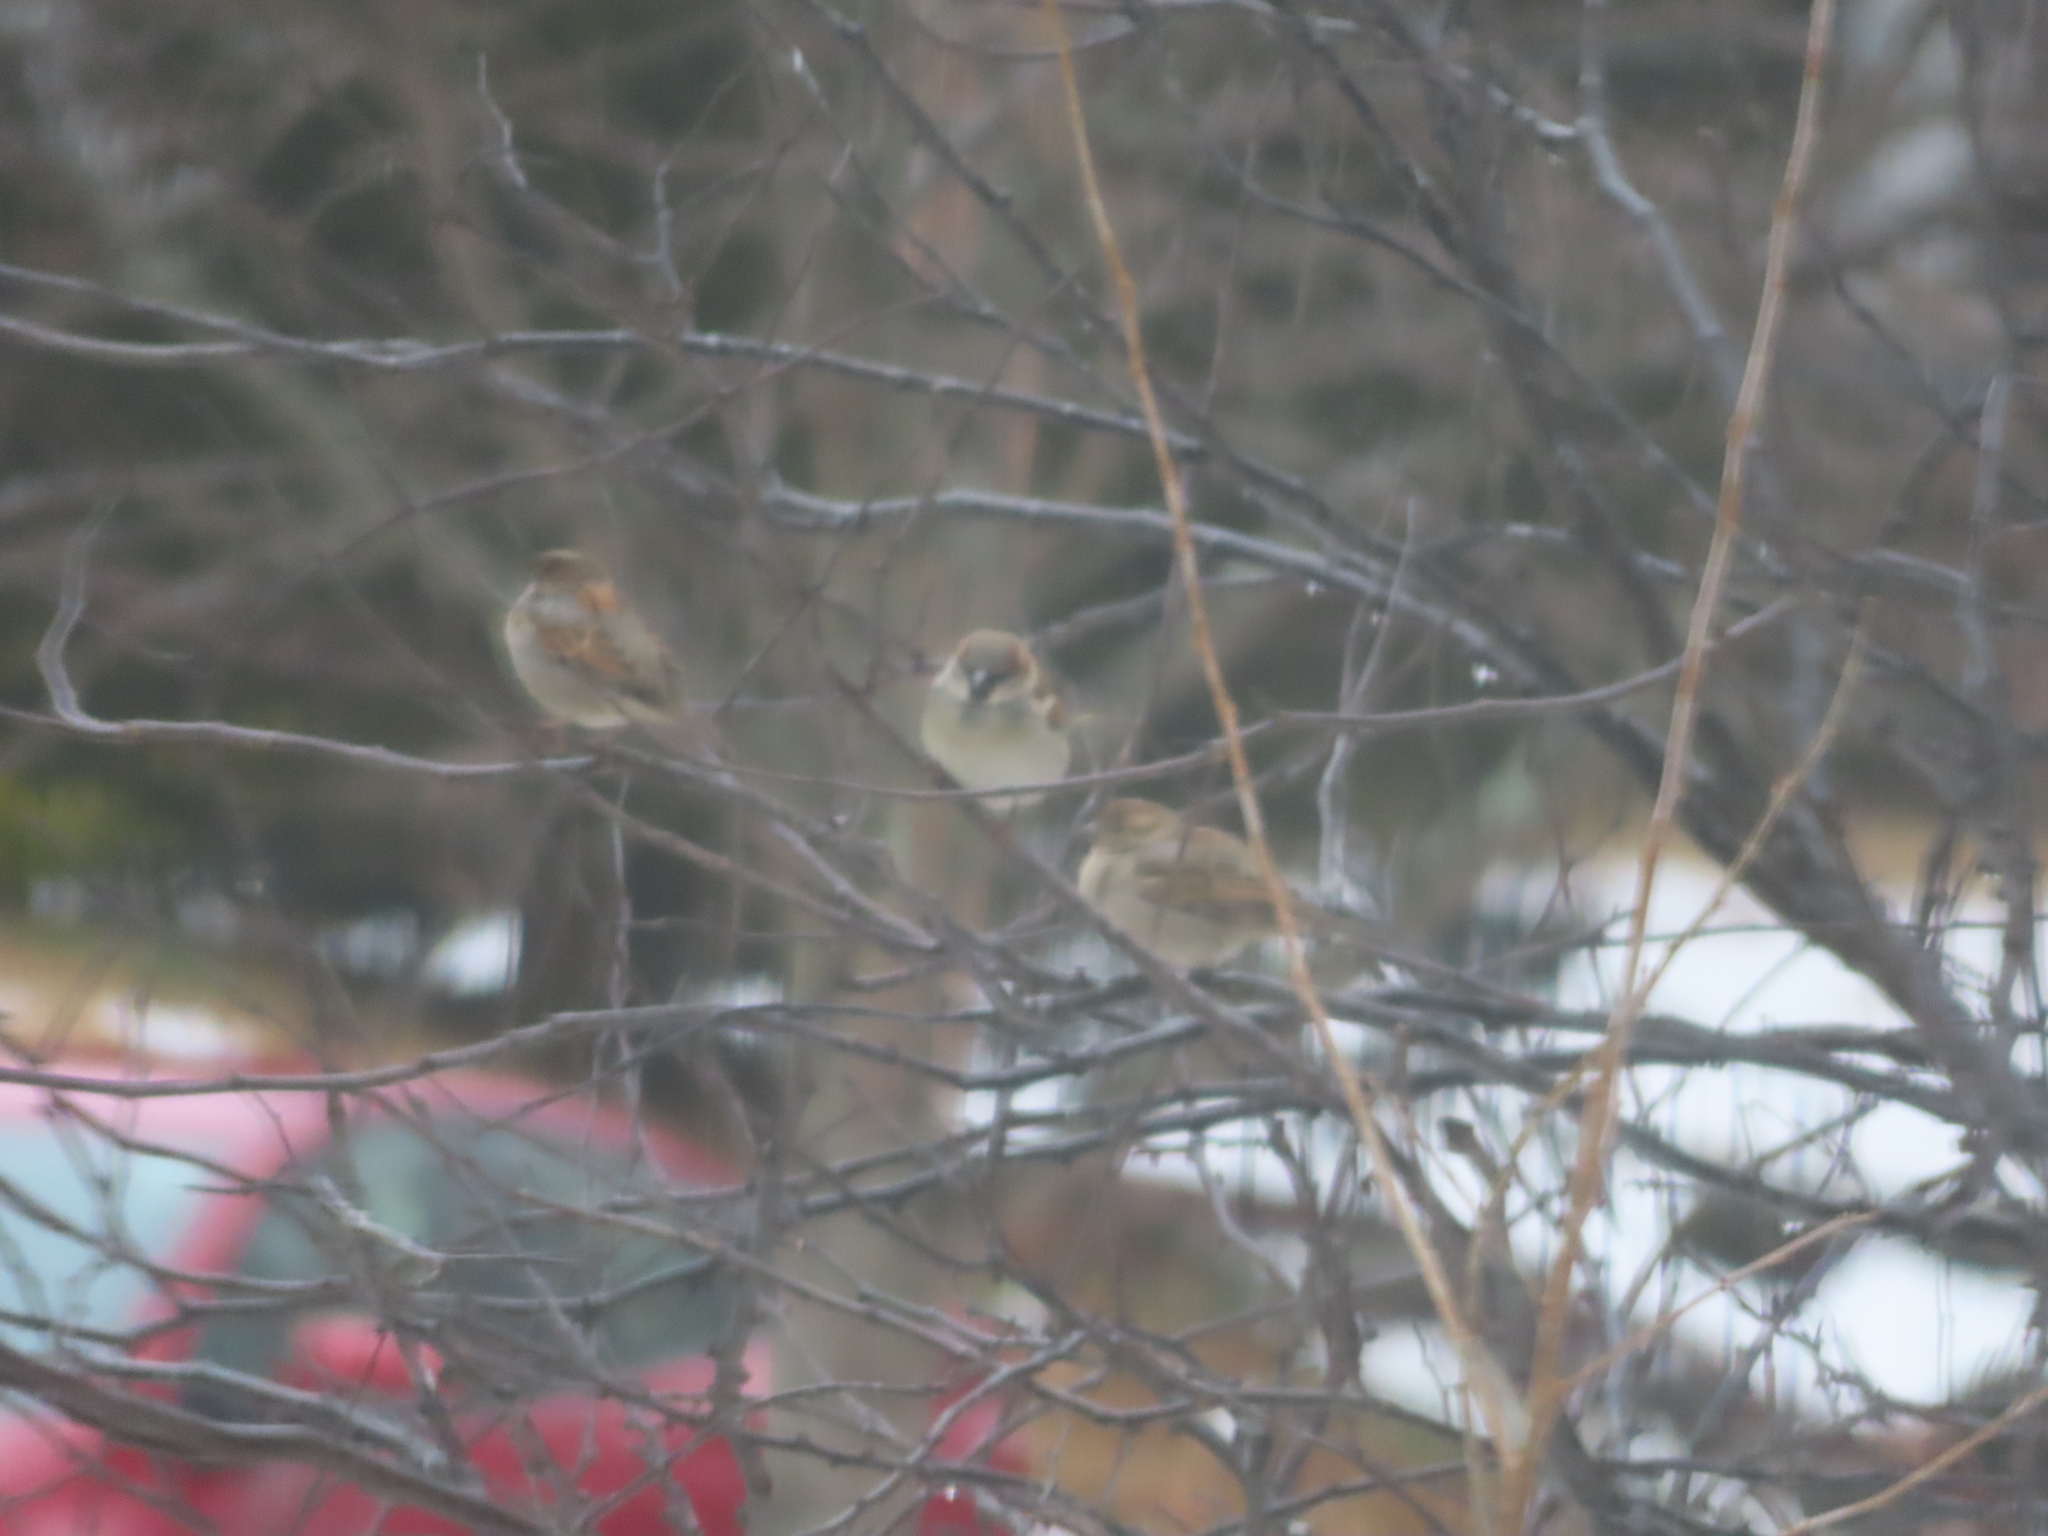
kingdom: Animalia
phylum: Chordata
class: Aves
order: Passeriformes
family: Passeridae
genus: Passer
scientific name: Passer domesticus
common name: House sparrow
